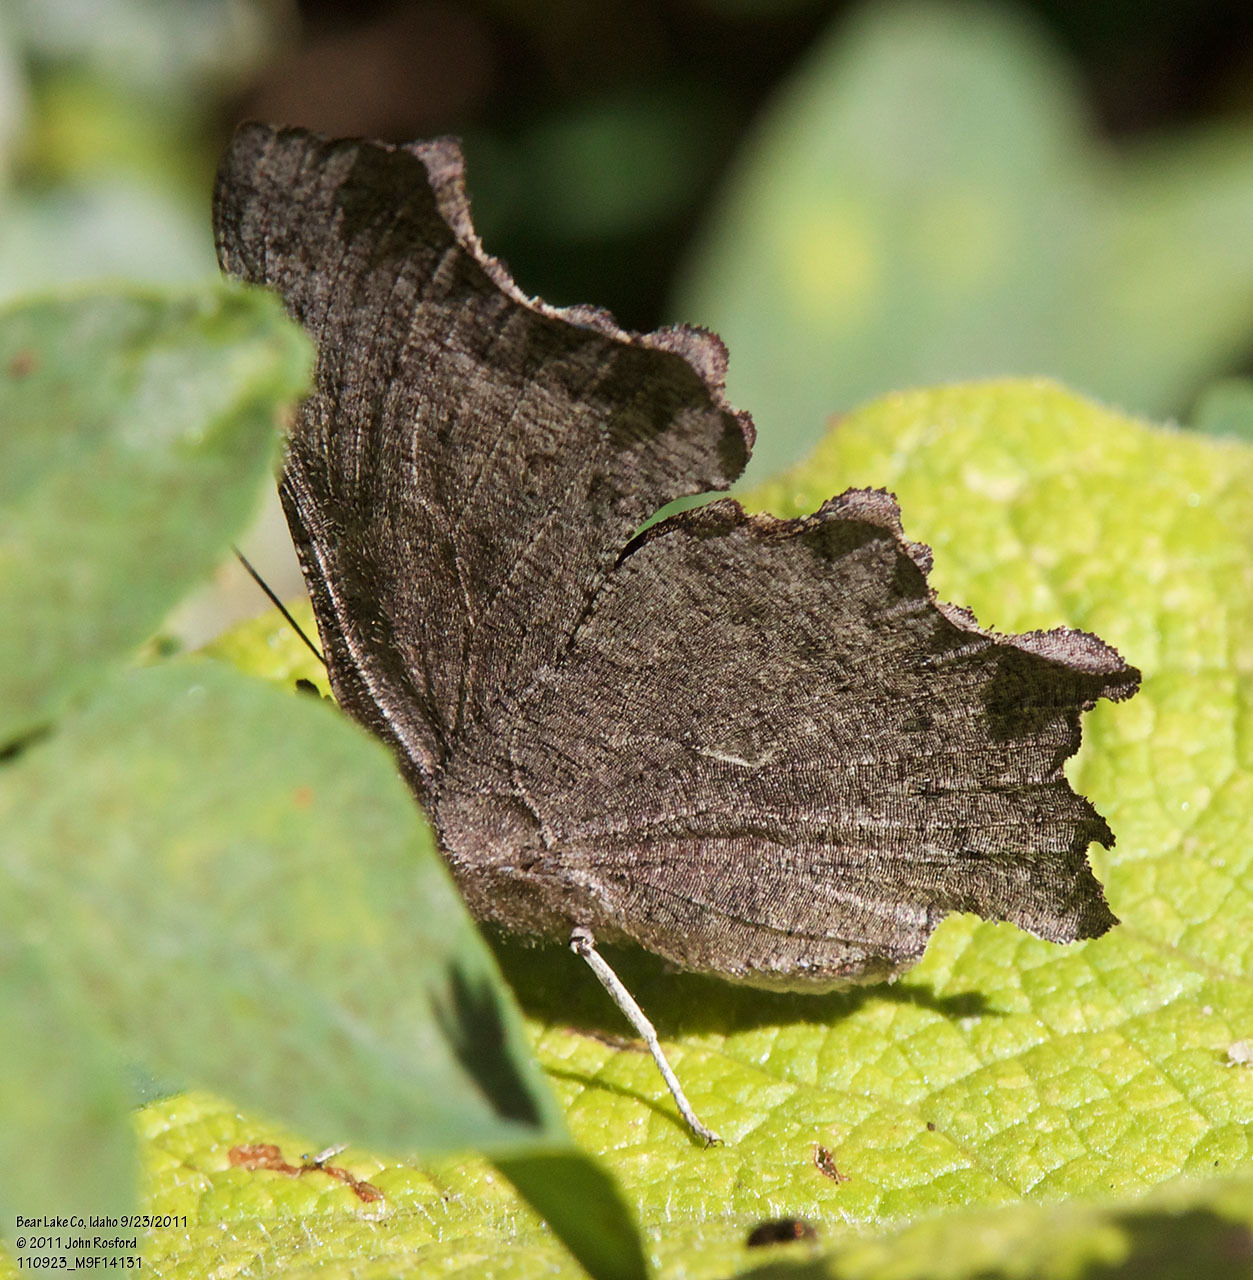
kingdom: Animalia
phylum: Arthropoda
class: Insecta
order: Lepidoptera
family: Nymphalidae
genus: Polygonia
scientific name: Polygonia faunus
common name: Green comma
